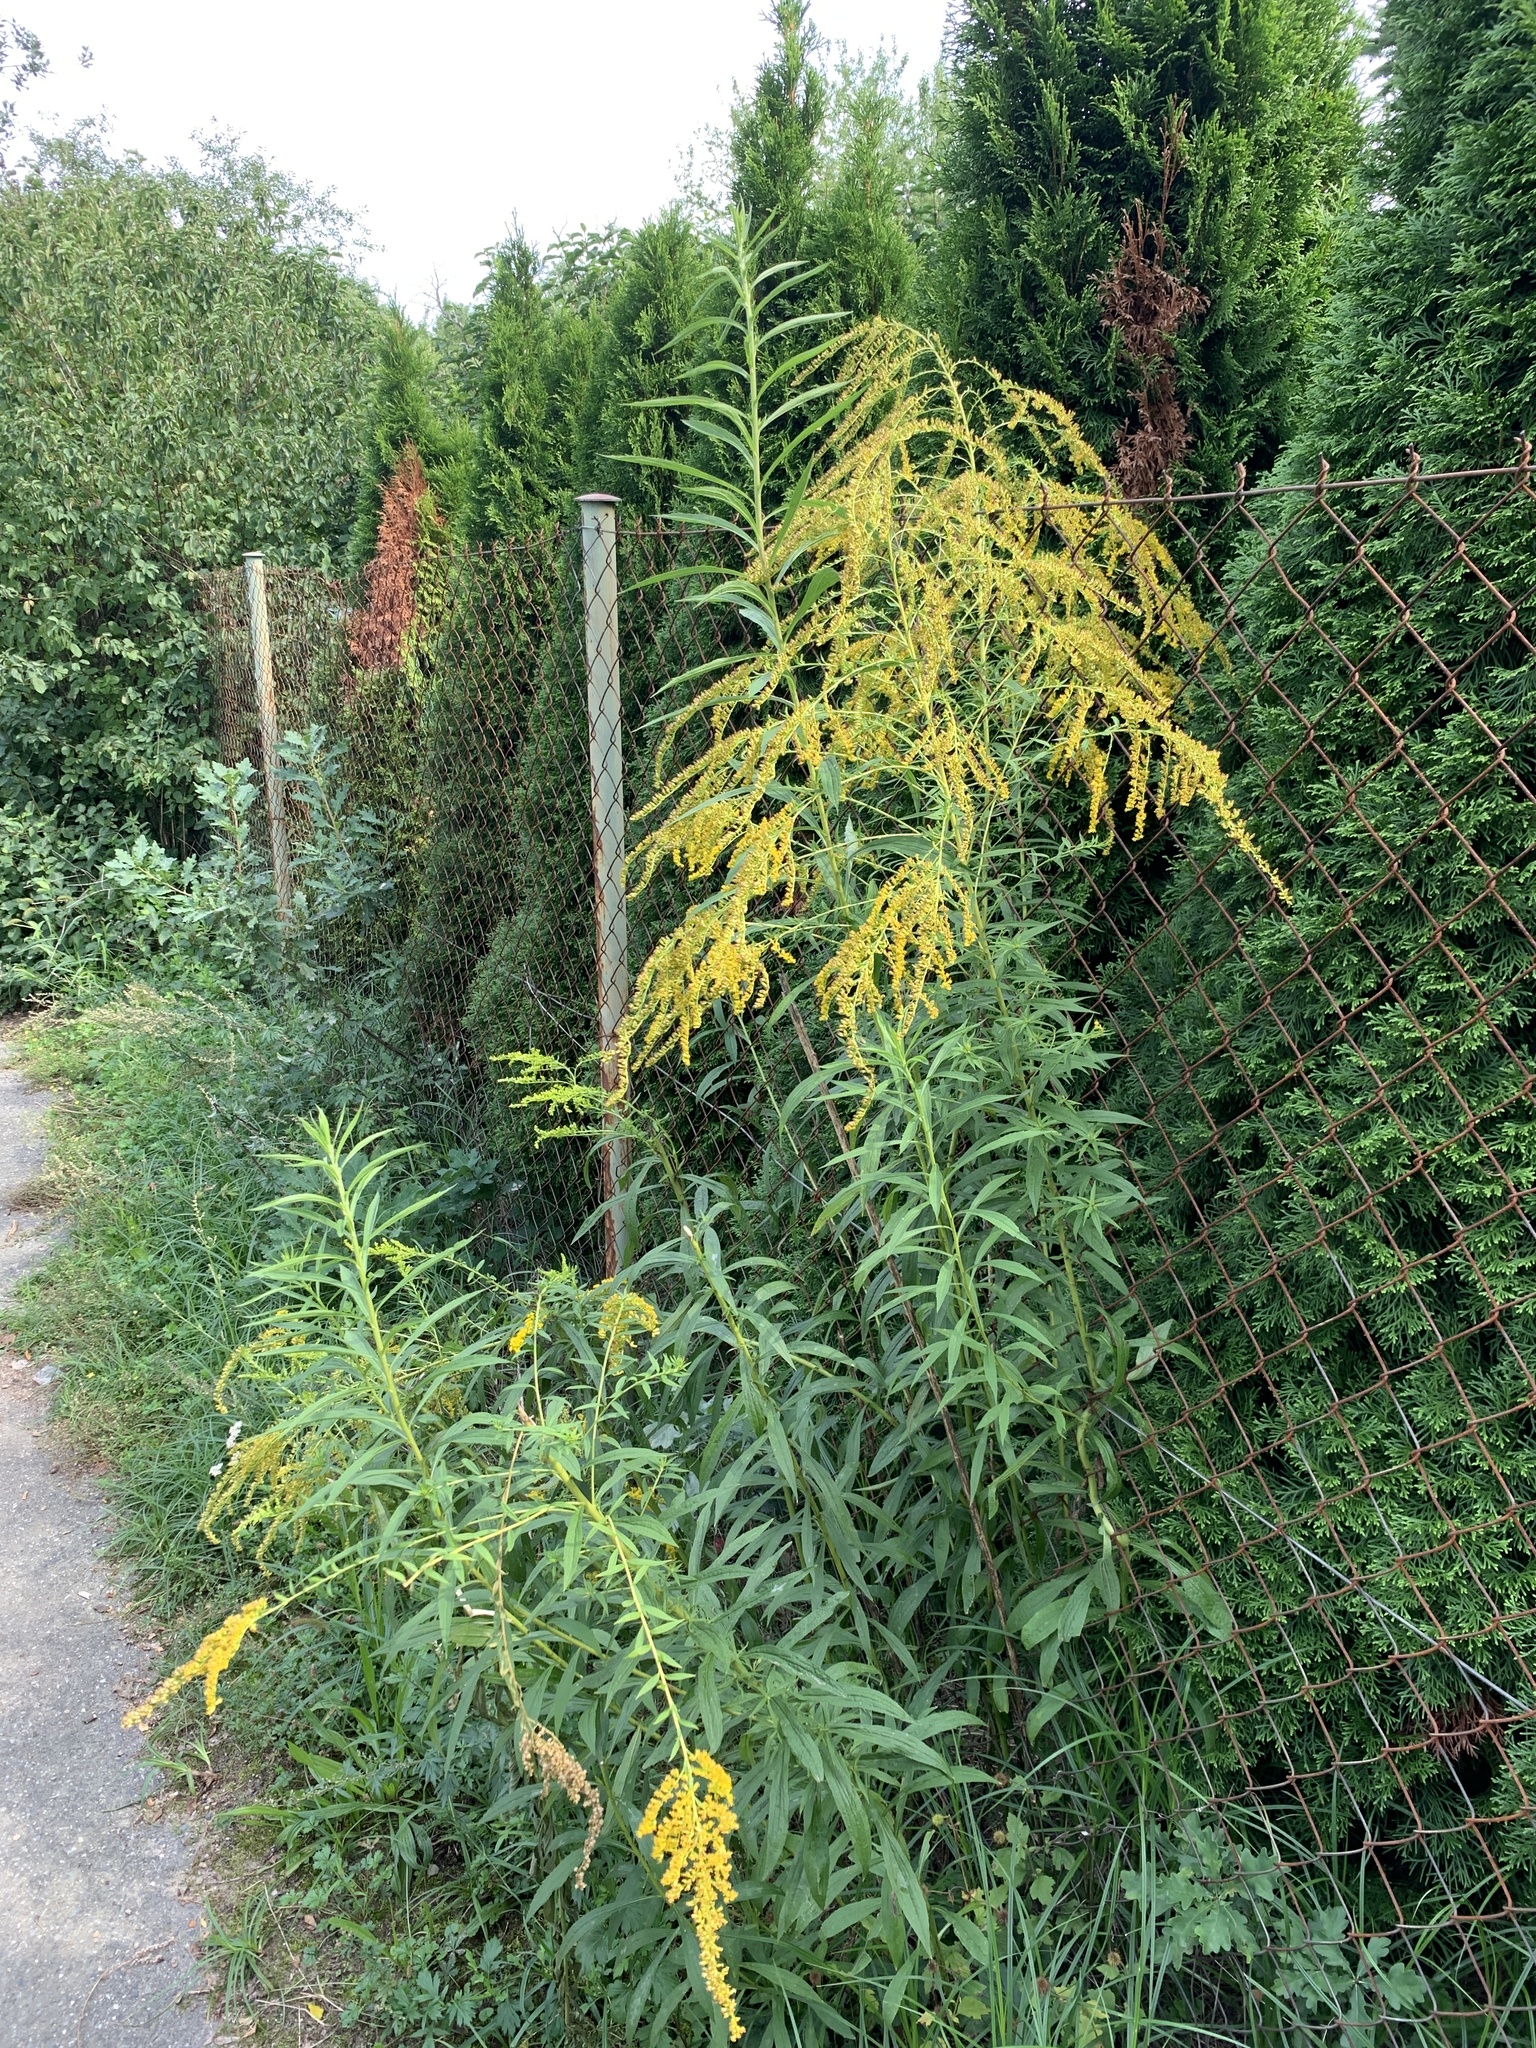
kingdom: Plantae
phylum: Tracheophyta
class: Magnoliopsida
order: Asterales
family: Asteraceae
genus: Solidago
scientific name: Solidago canadensis
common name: Canada goldenrod
